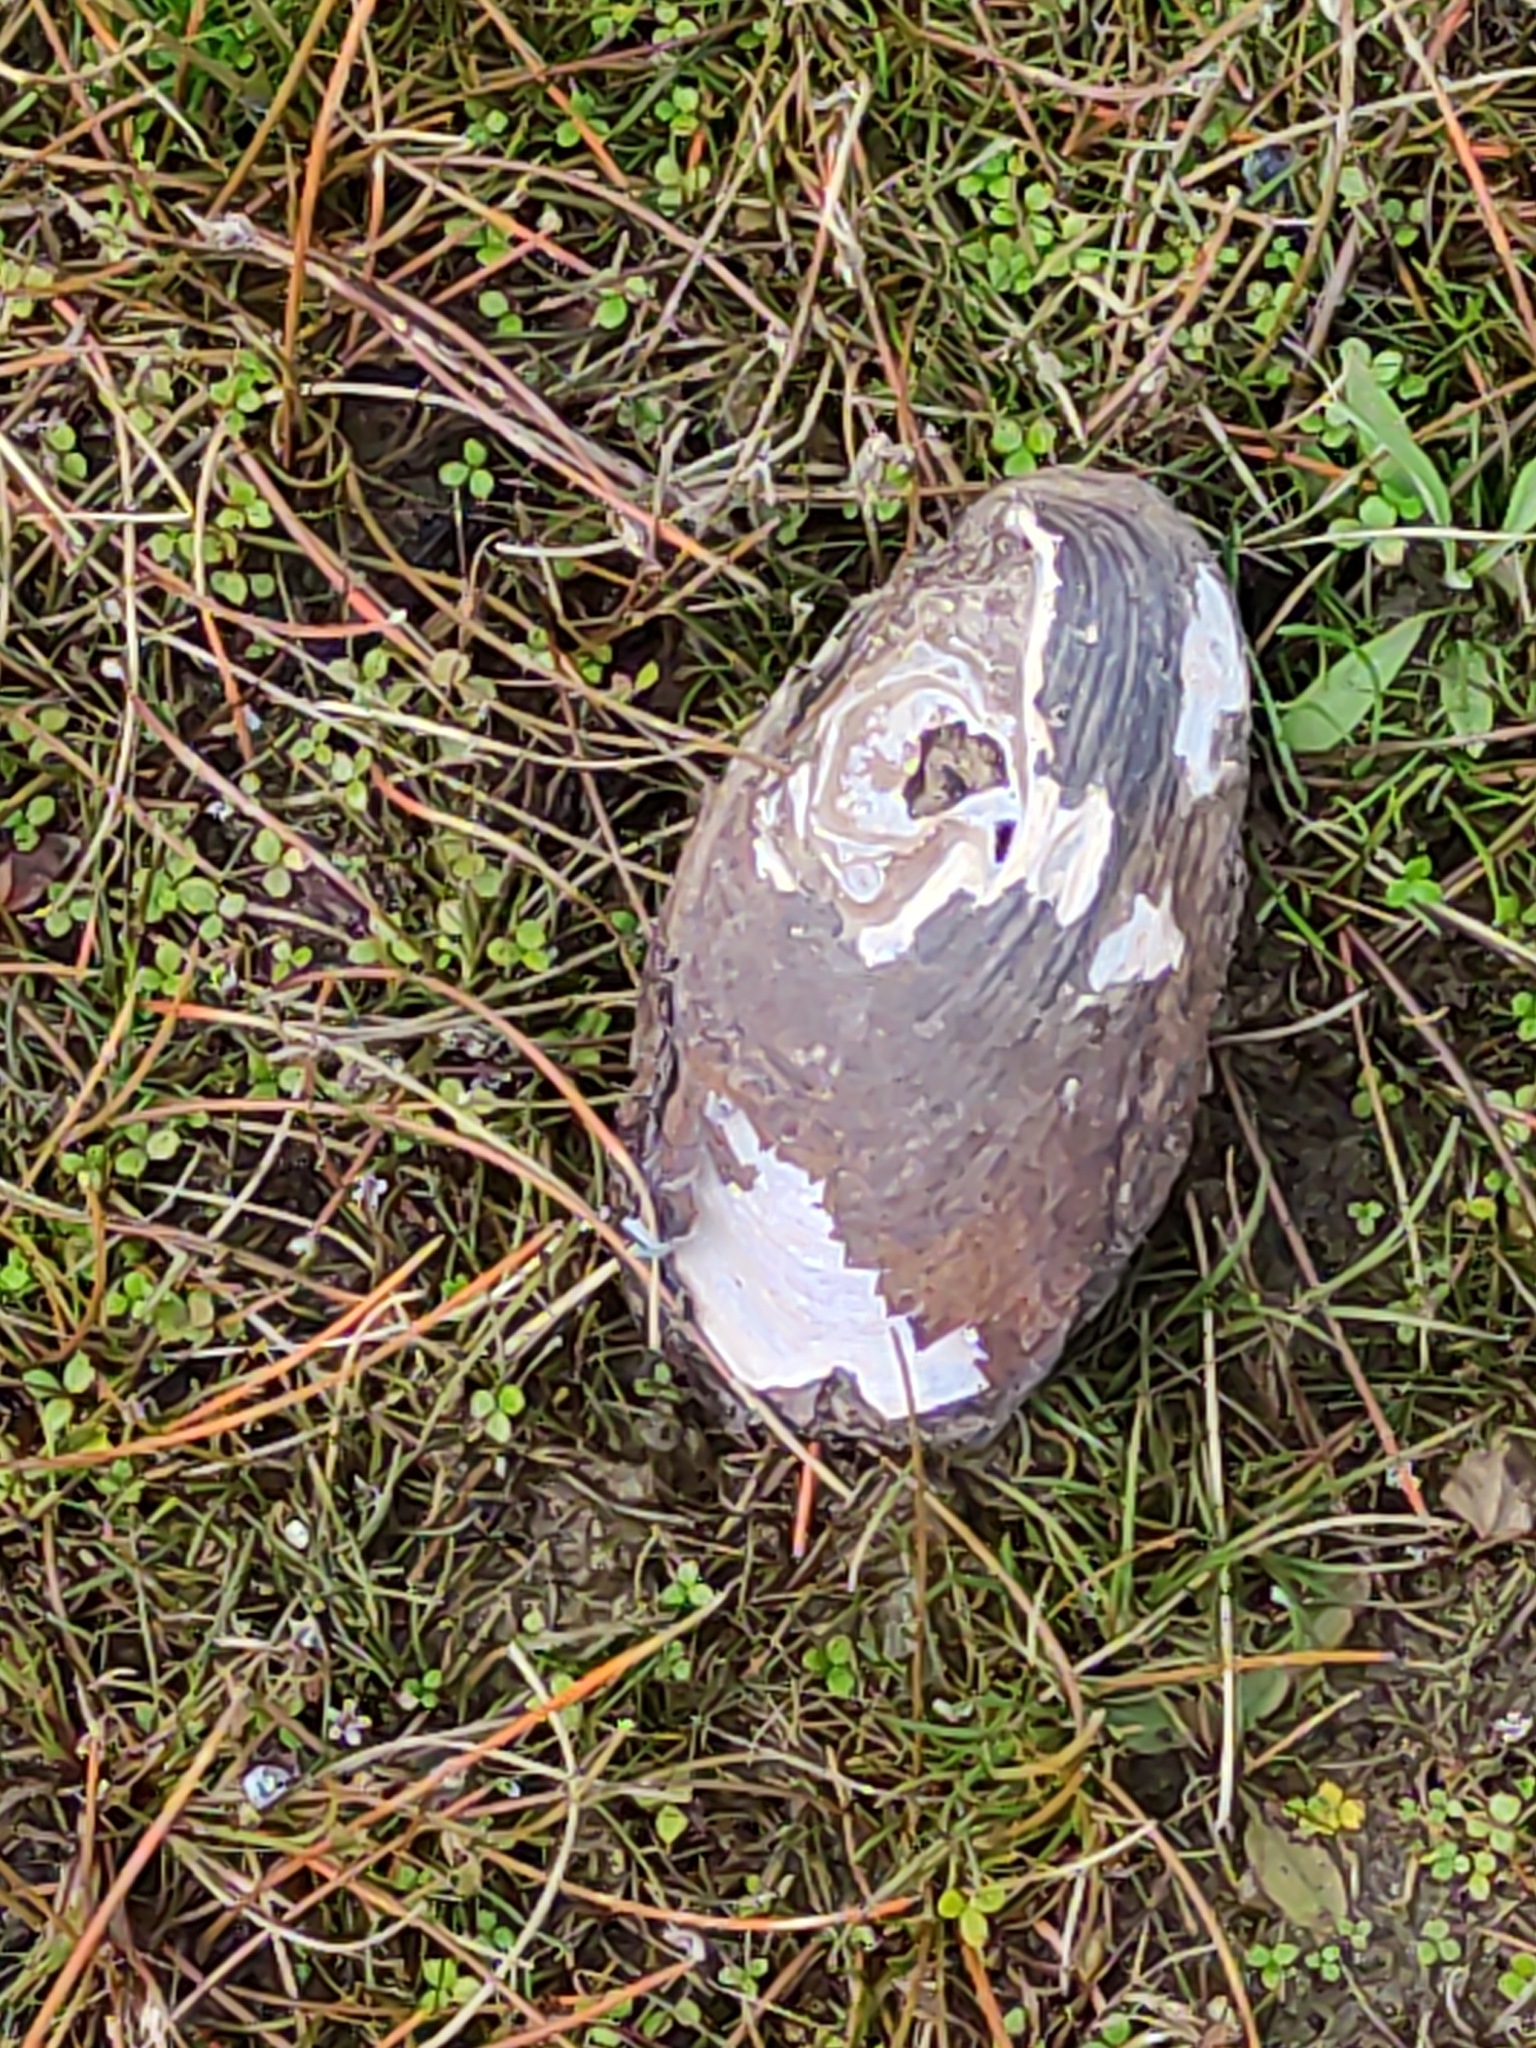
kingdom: Animalia
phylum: Mollusca
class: Bivalvia
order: Unionida
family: Hyriidae
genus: Echyridella
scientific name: Echyridella menziesii
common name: New zealand freshwater mussel
